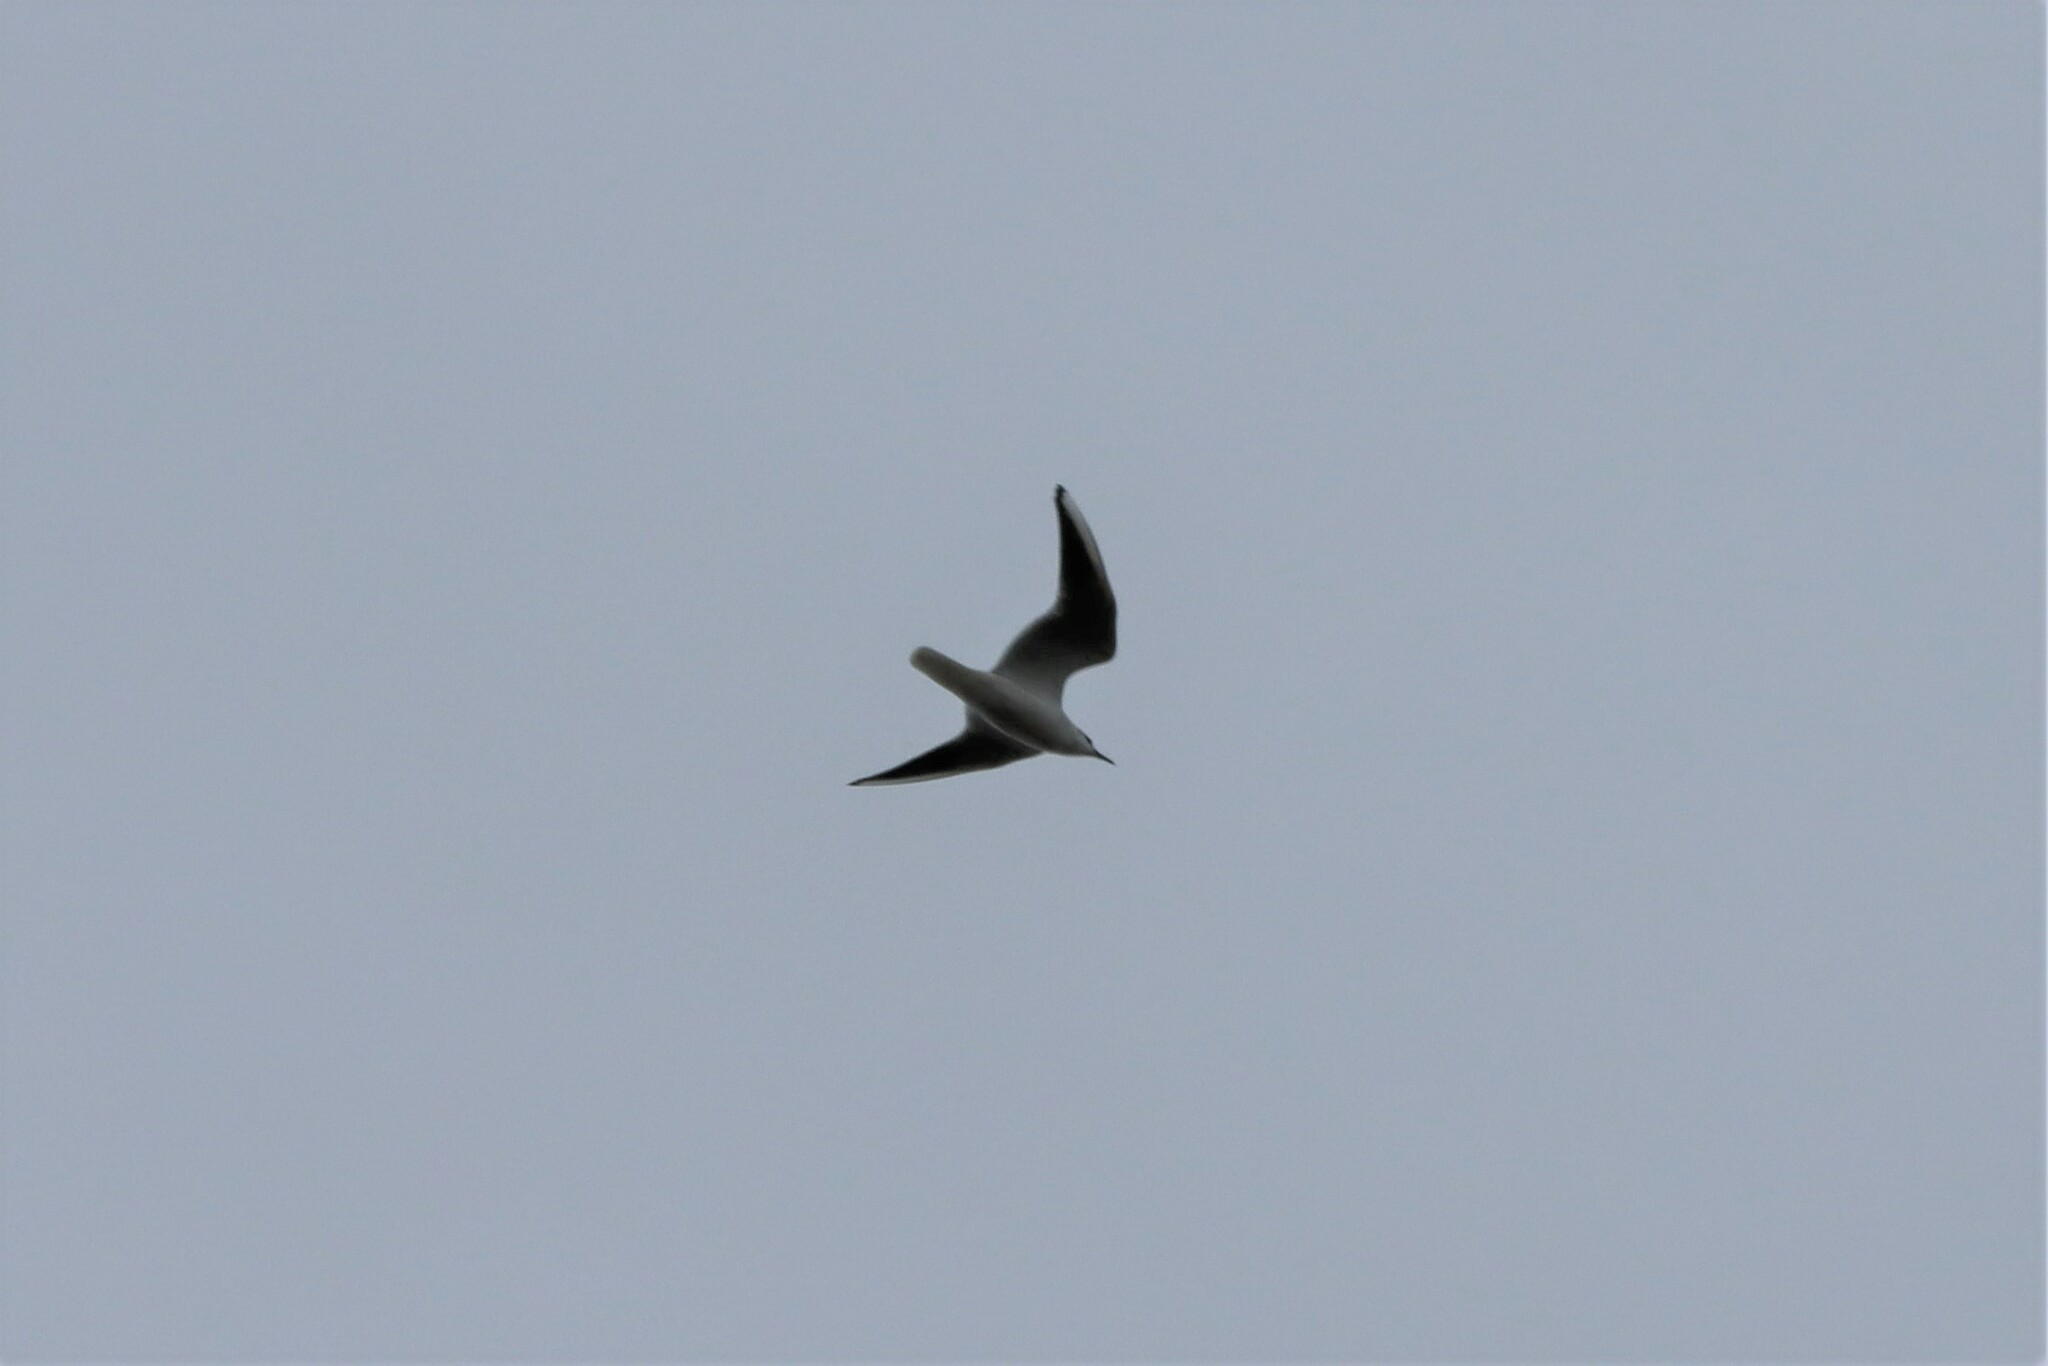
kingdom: Animalia
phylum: Chordata
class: Aves
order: Charadriiformes
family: Laridae
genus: Chroicocephalus
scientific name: Chroicocephalus ridibundus
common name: Black-headed gull
